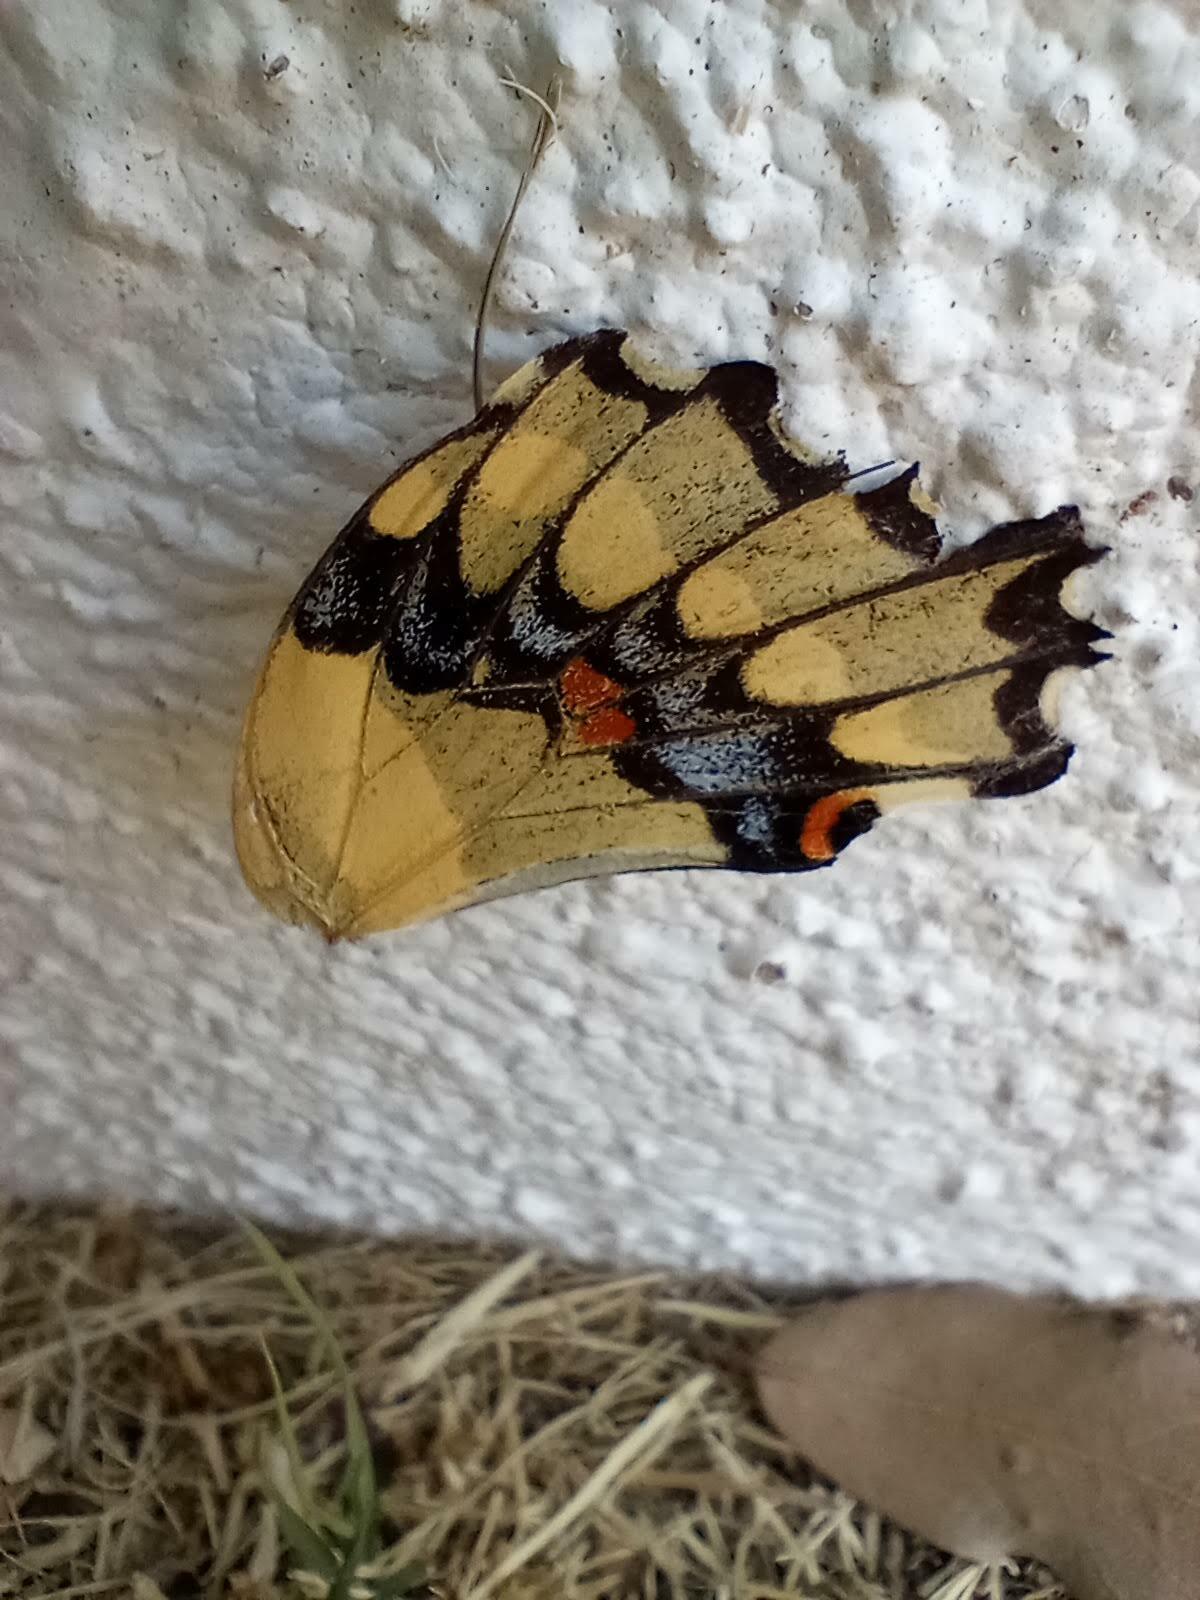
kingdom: Animalia
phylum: Arthropoda
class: Insecta
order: Lepidoptera
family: Papilionidae
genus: Papilio
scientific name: Papilio rumiko
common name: Western giant swallowtail
